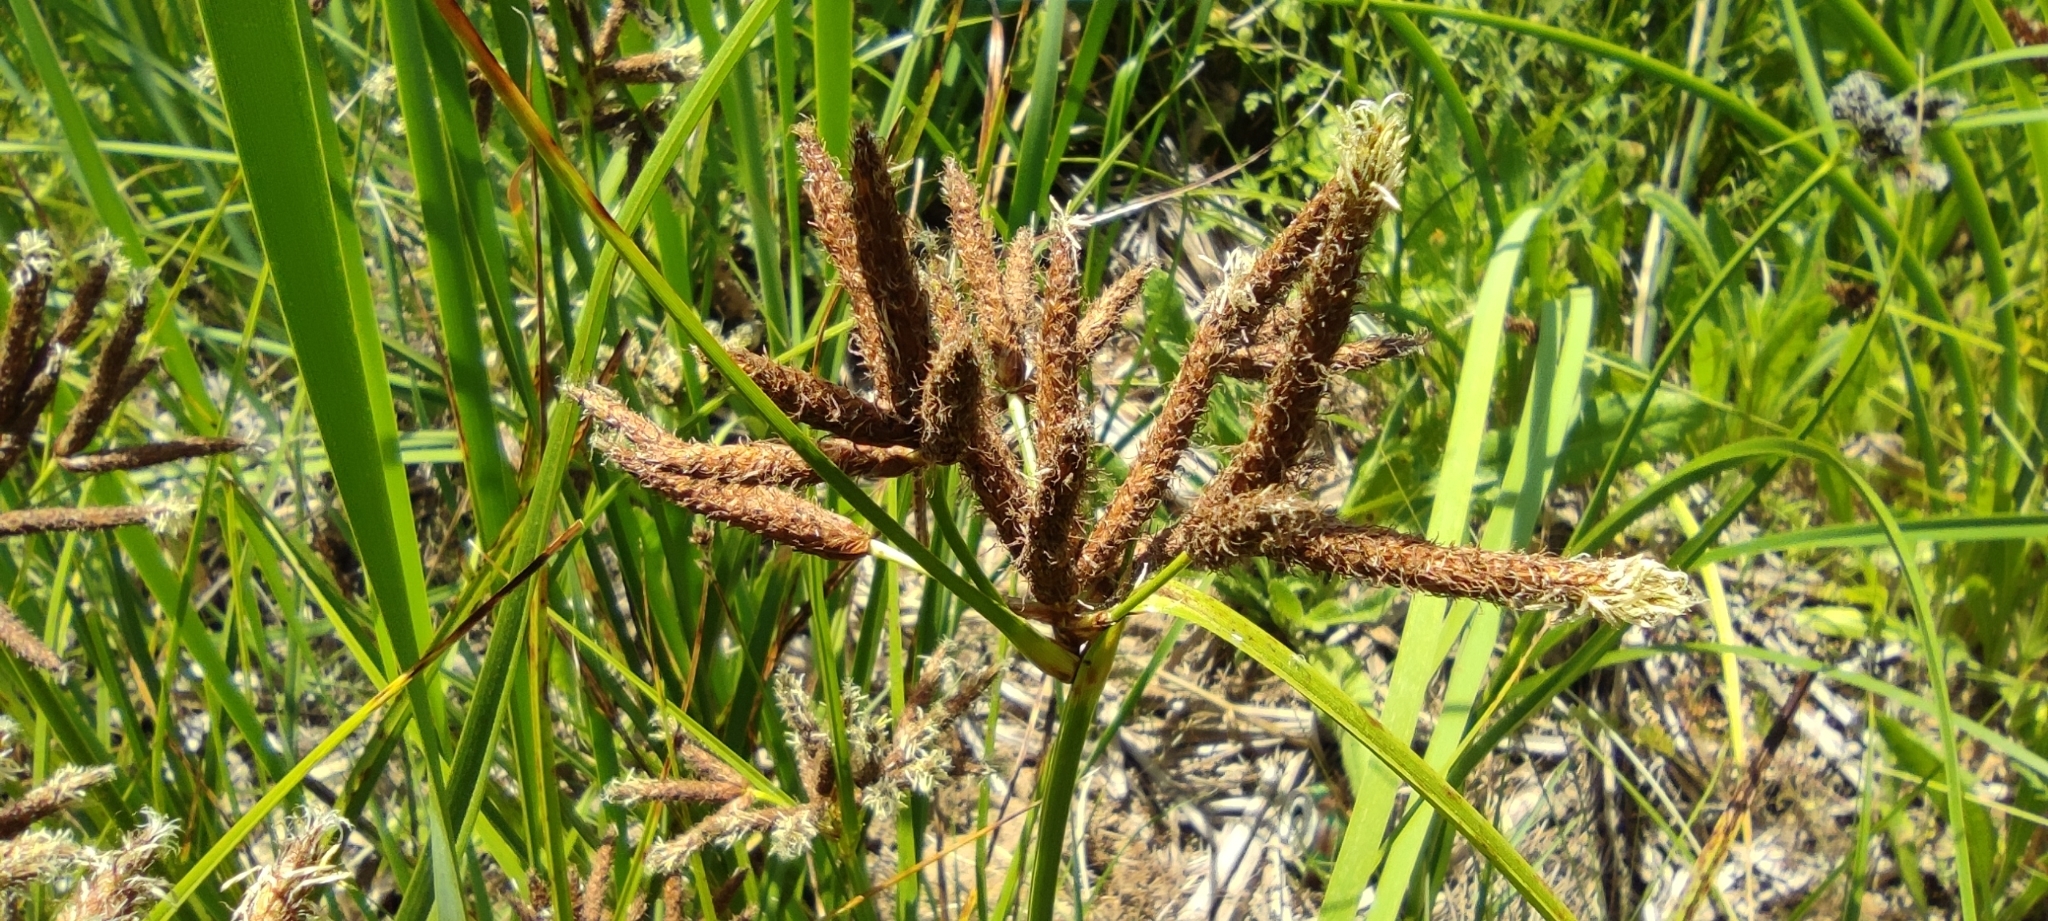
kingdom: Plantae
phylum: Tracheophyta
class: Liliopsida
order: Poales
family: Cyperaceae
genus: Bolboschoenus
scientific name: Bolboschoenus glaucus
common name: Tuberous bulrush
